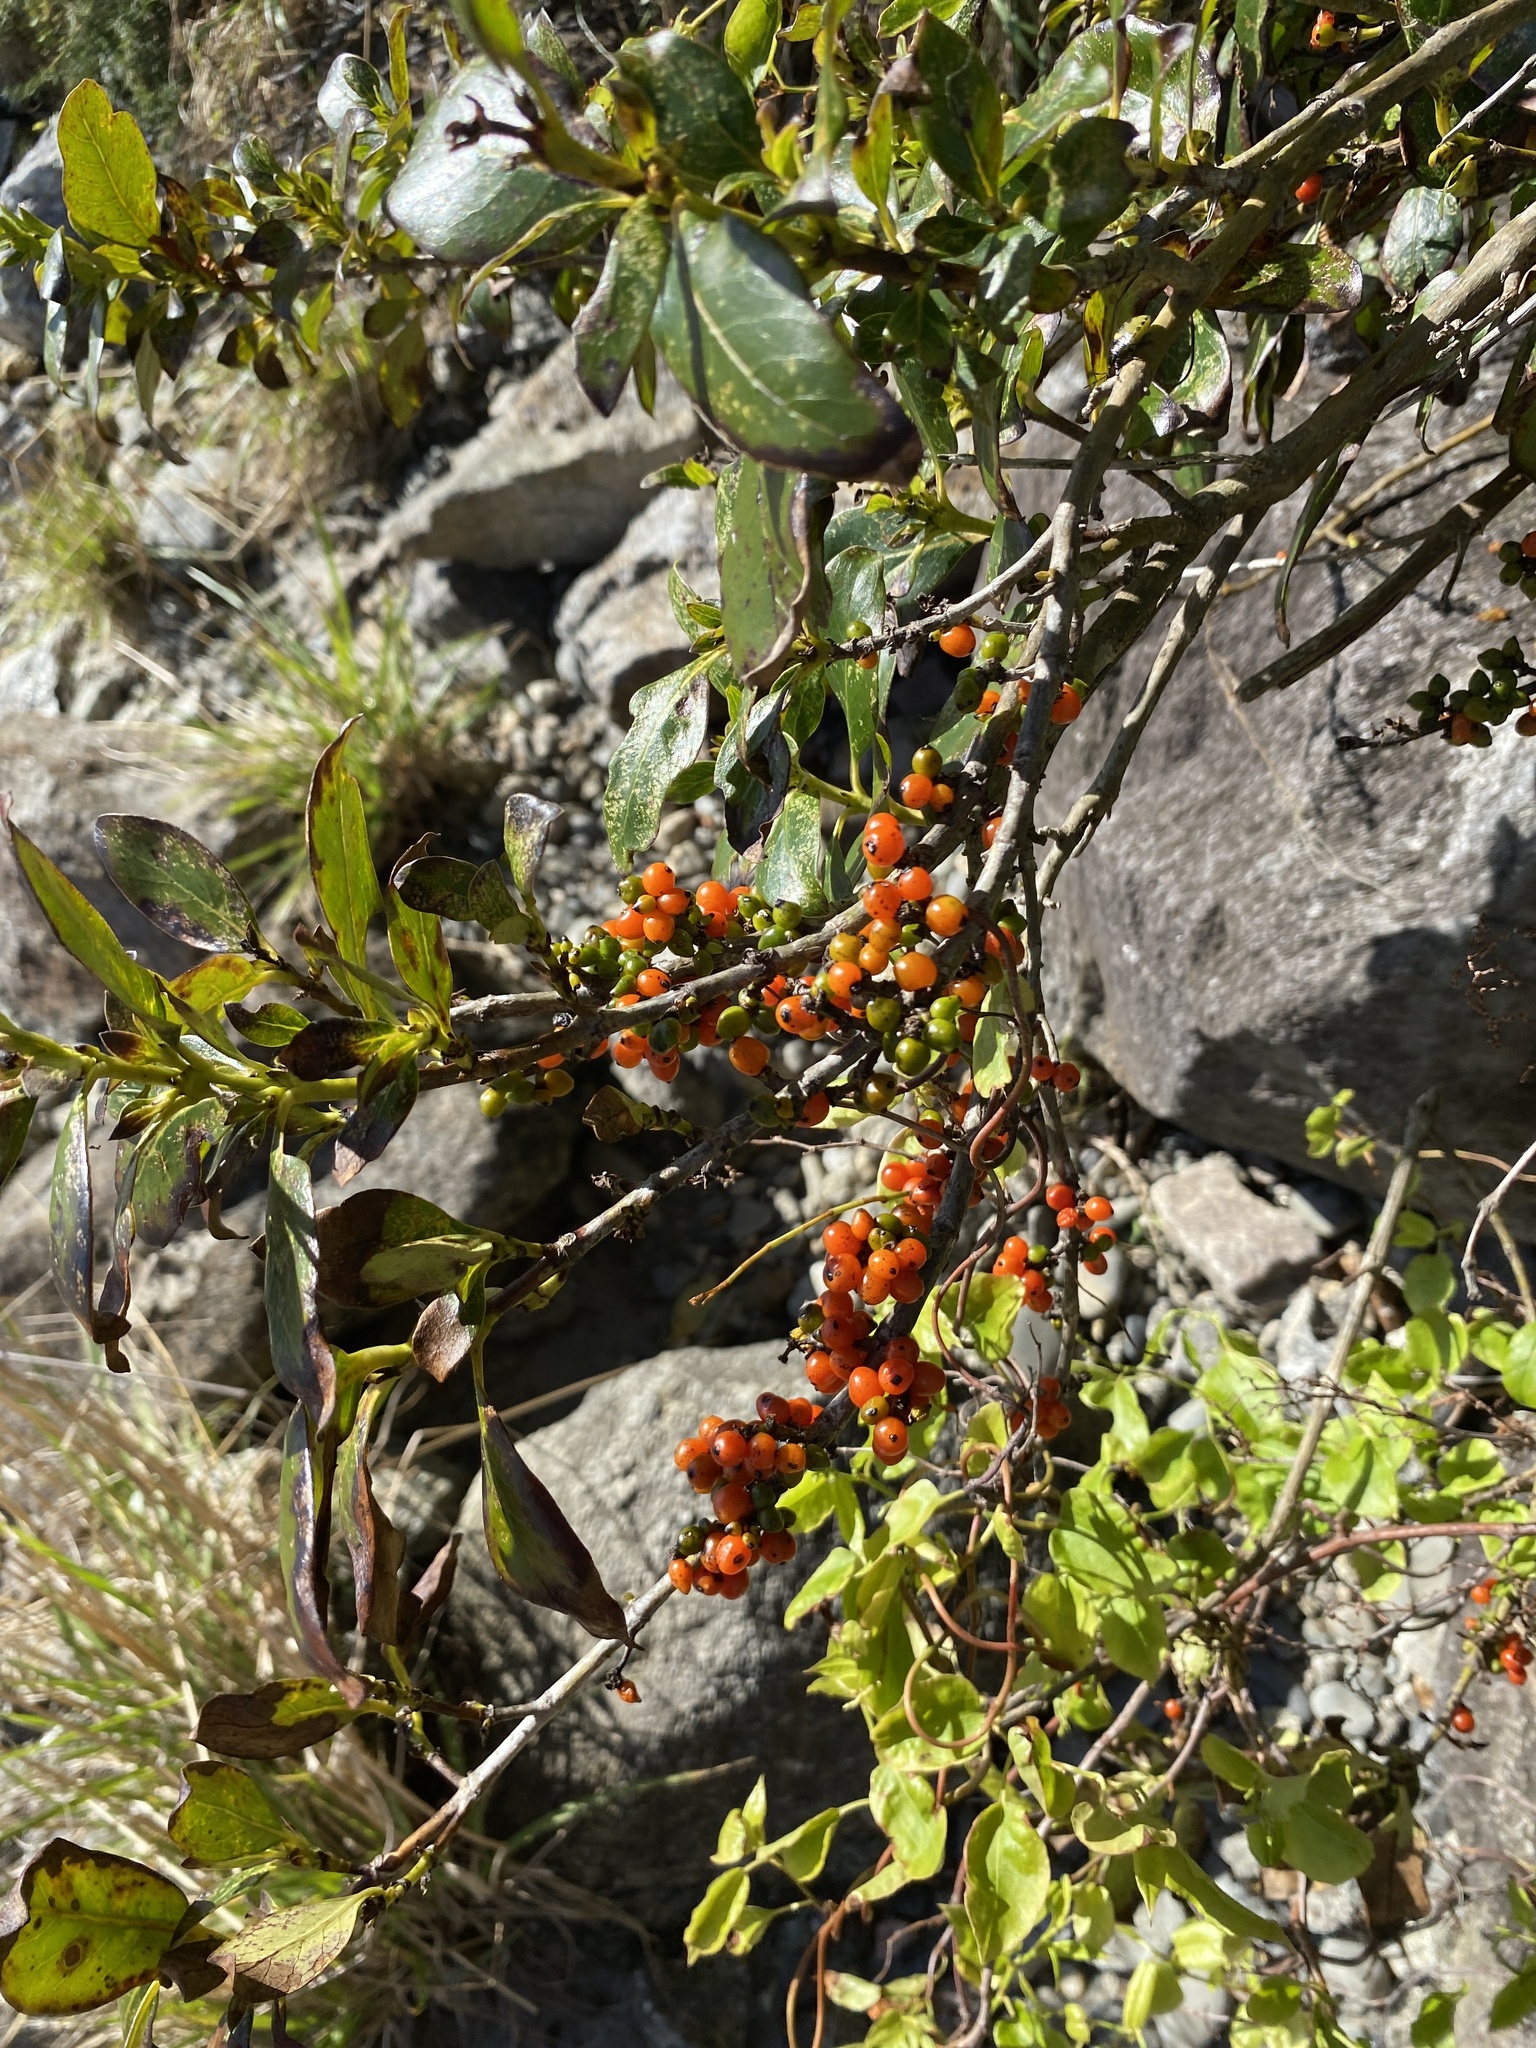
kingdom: Plantae
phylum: Tracheophyta
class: Magnoliopsida
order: Gentianales
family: Rubiaceae
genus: Coprosma
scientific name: Coprosma robusta
